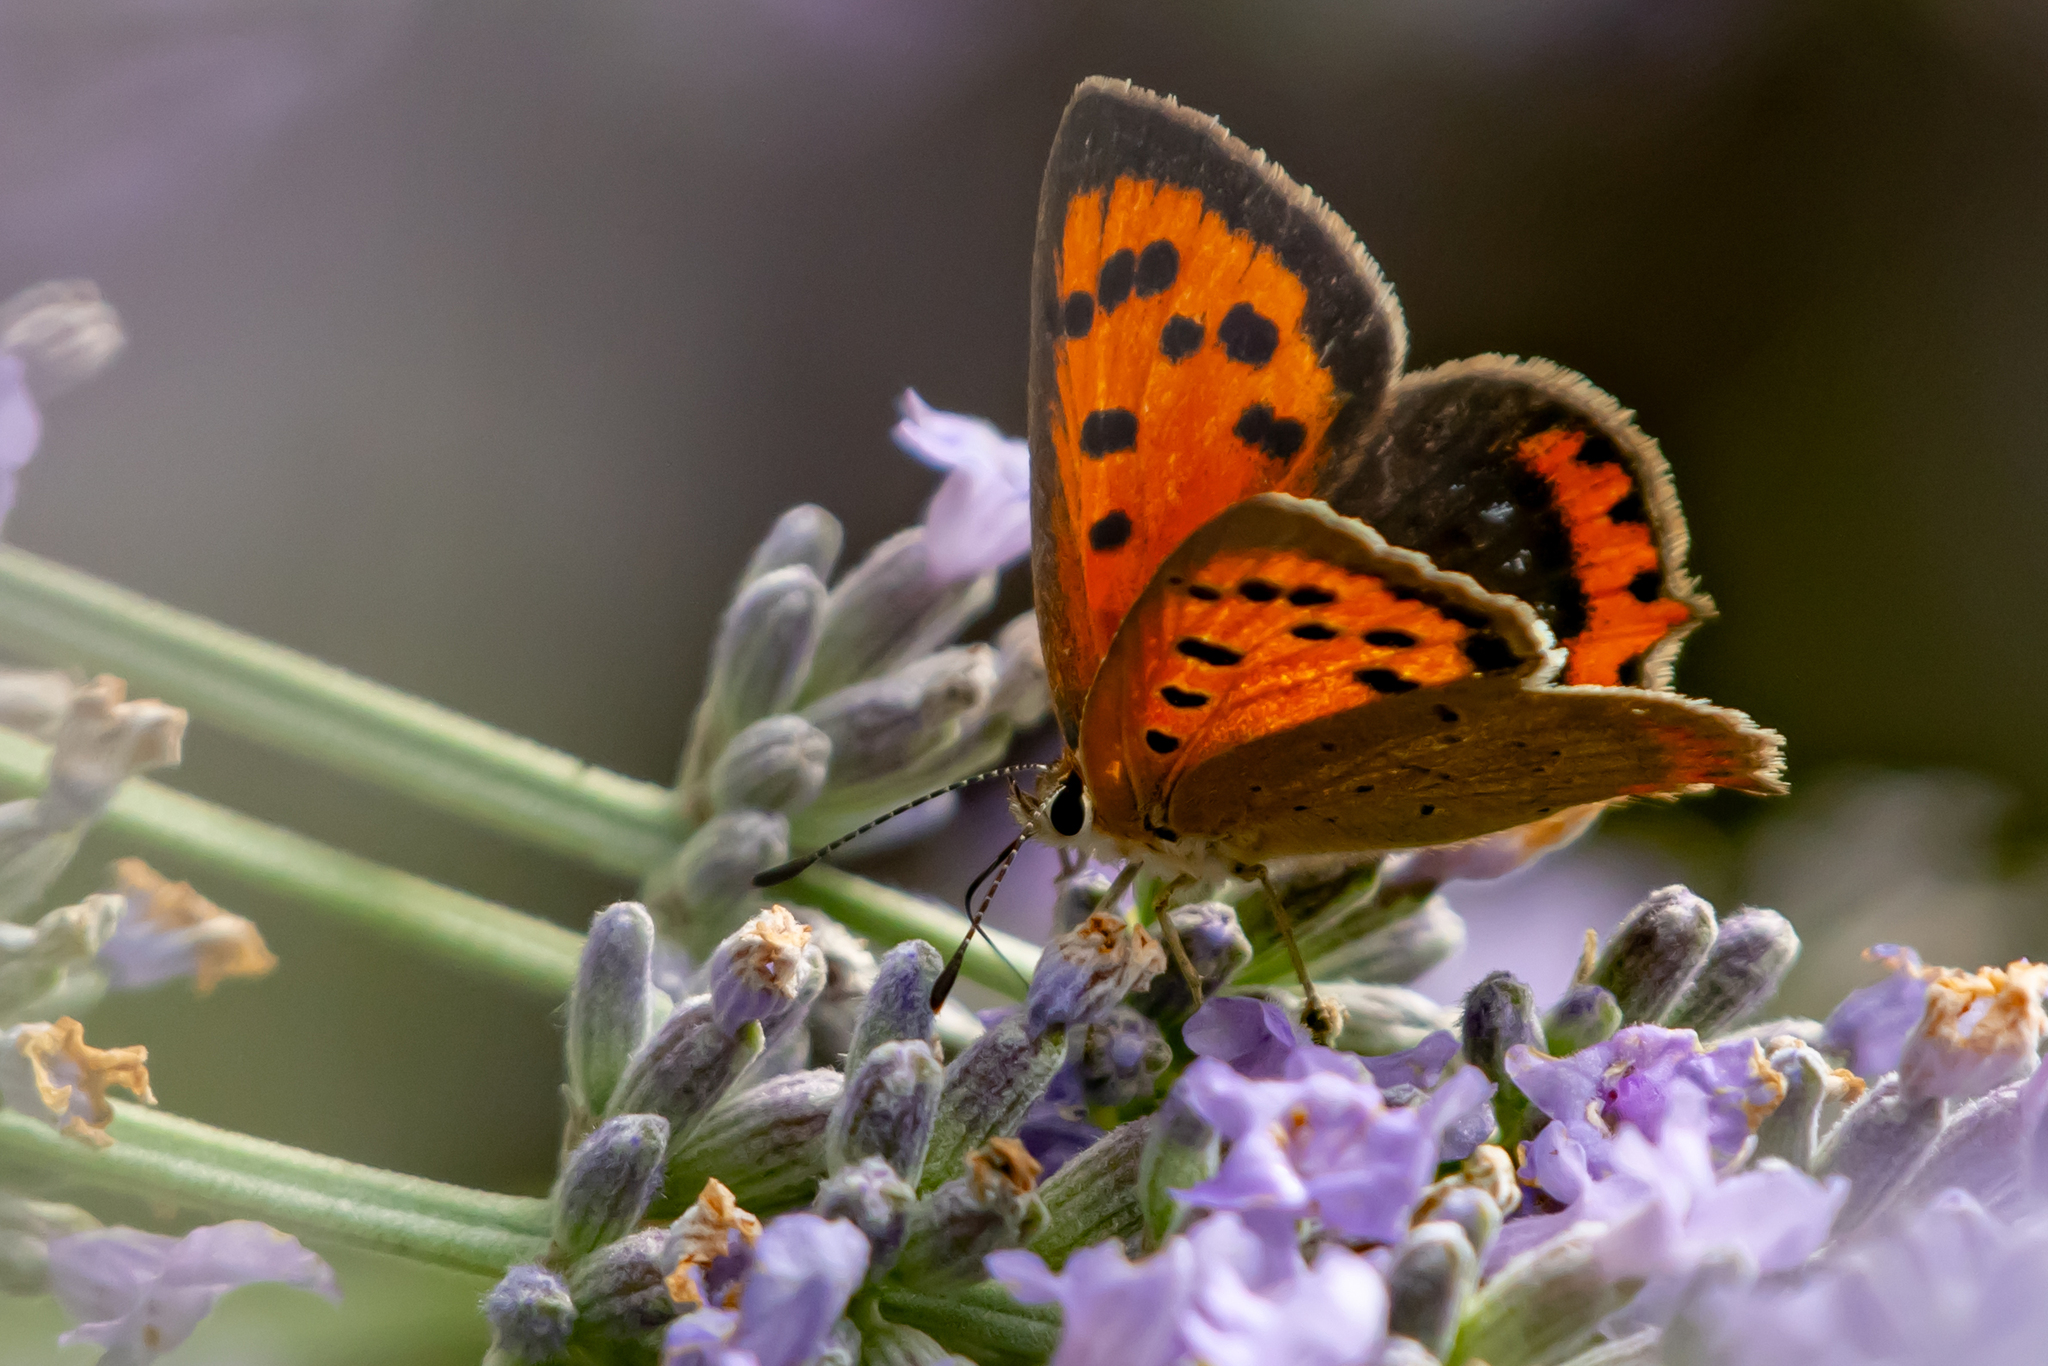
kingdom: Animalia
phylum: Arthropoda
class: Insecta
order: Lepidoptera
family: Lycaenidae
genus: Lycaena
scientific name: Lycaena phlaeas
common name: Small copper
